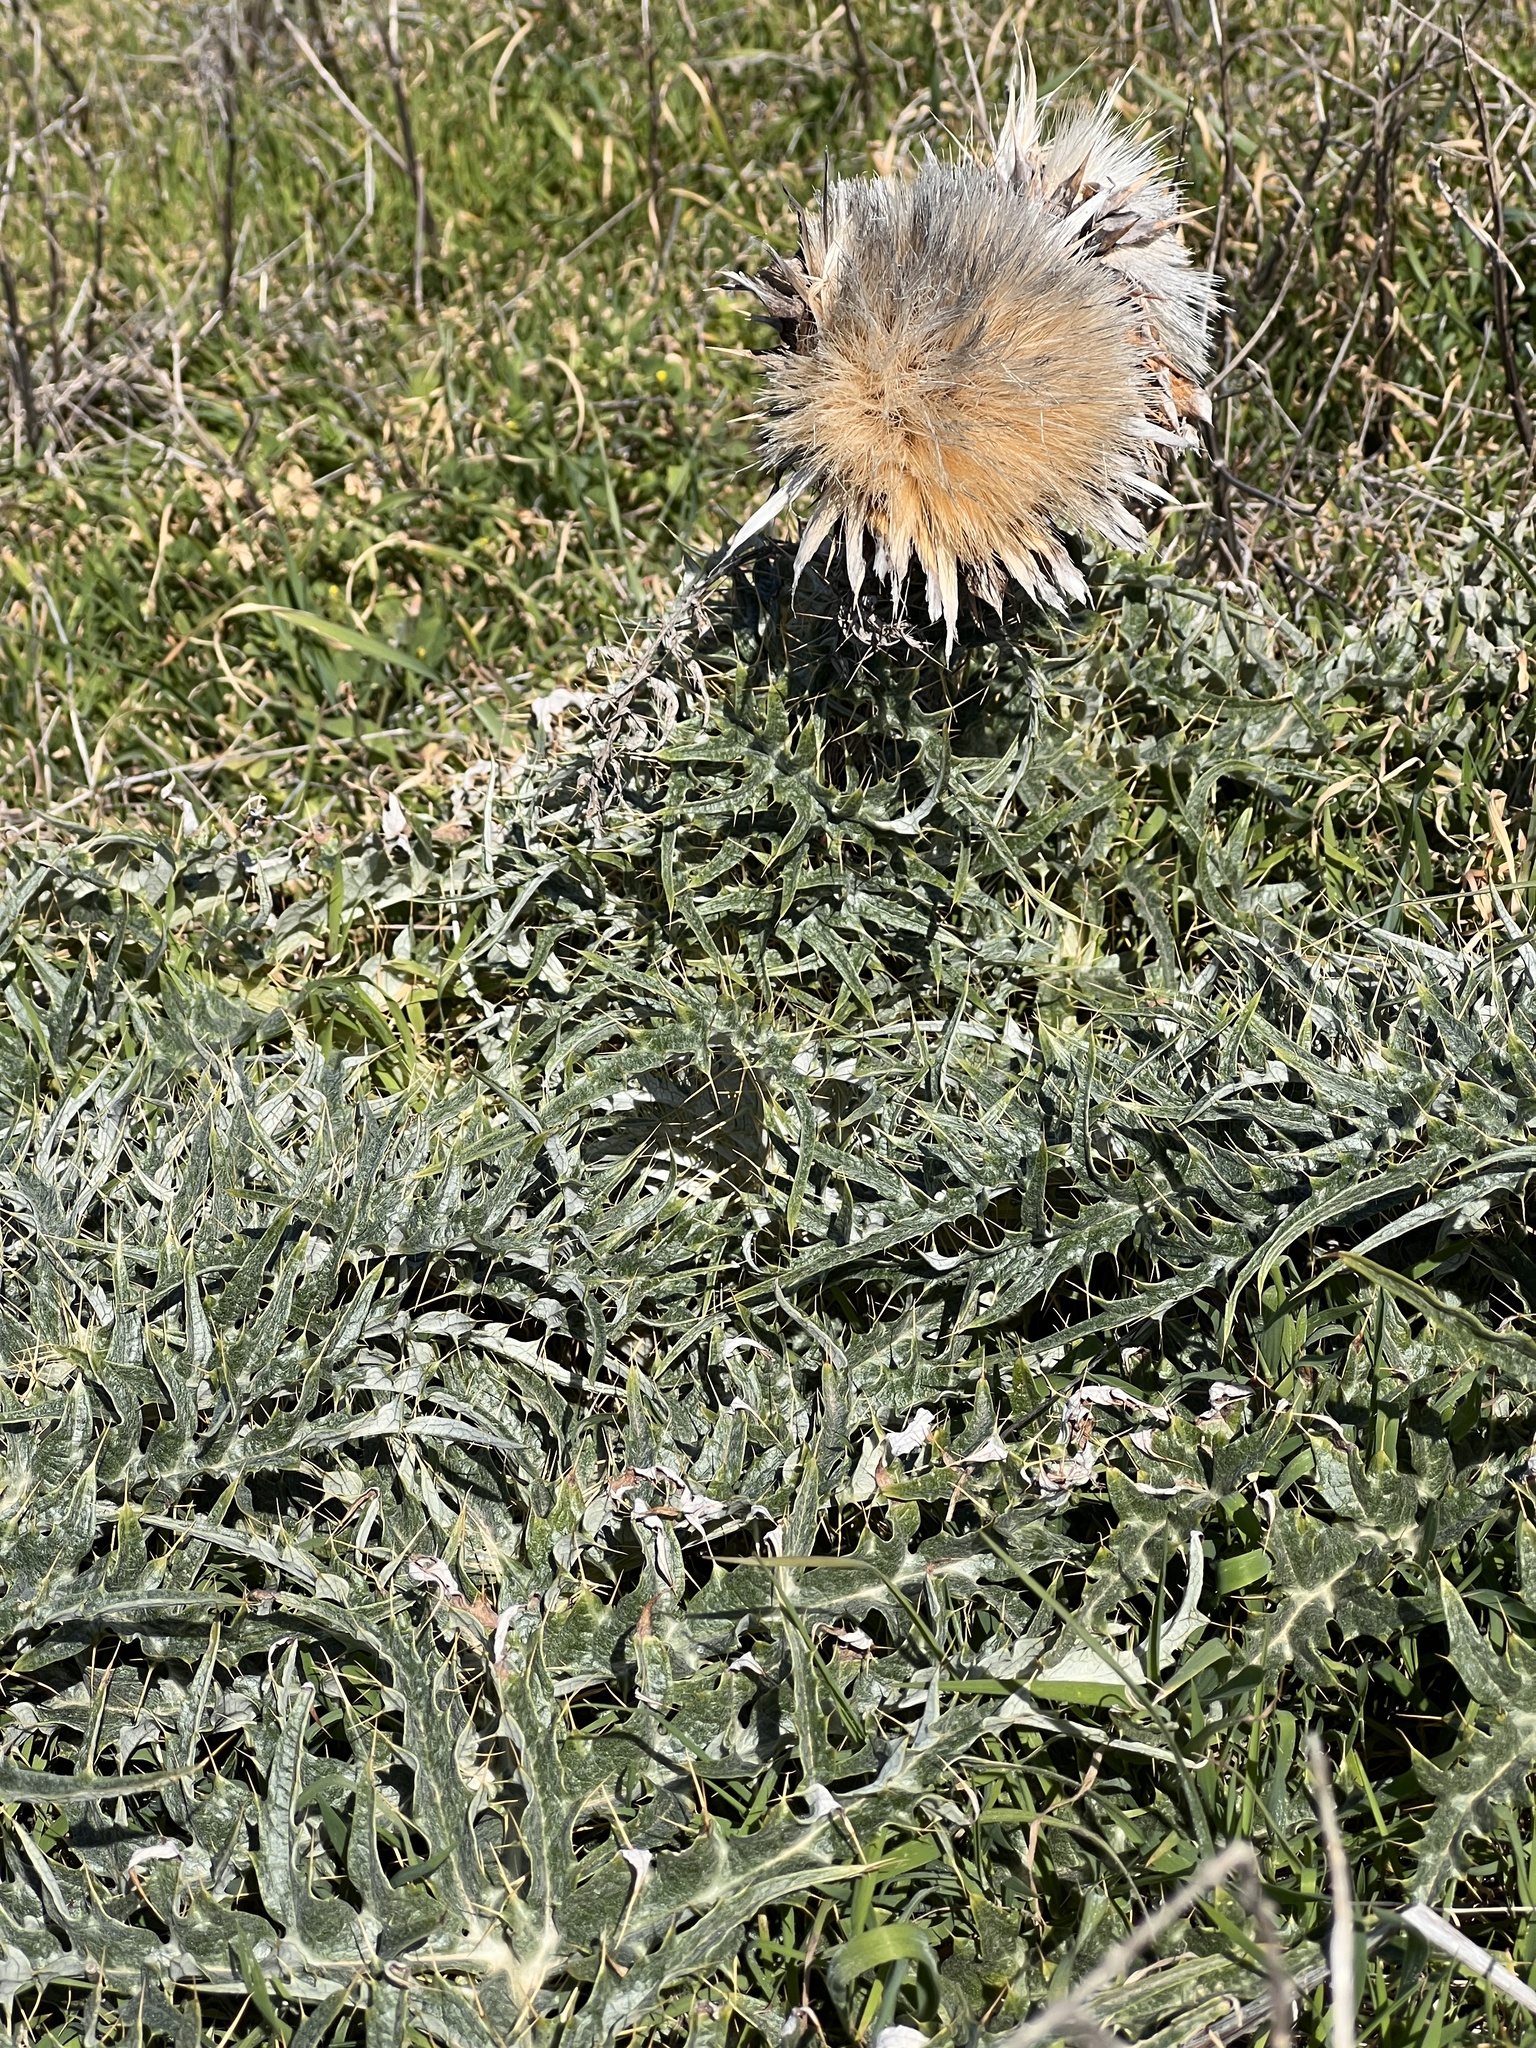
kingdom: Plantae
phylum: Tracheophyta
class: Magnoliopsida
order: Asterales
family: Asteraceae
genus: Cynara
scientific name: Cynara cardunculus
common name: Globe artichoke
